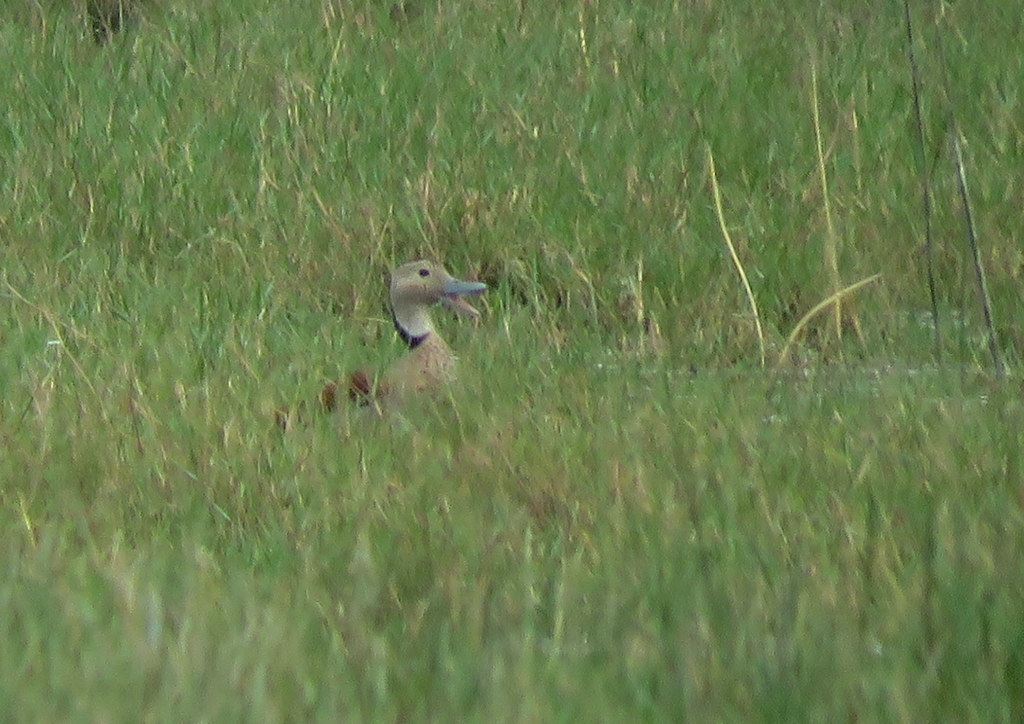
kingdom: Animalia
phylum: Chordata
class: Aves
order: Anseriformes
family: Anatidae
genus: Callonetta
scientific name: Callonetta leucophrys
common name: Ringed teal
